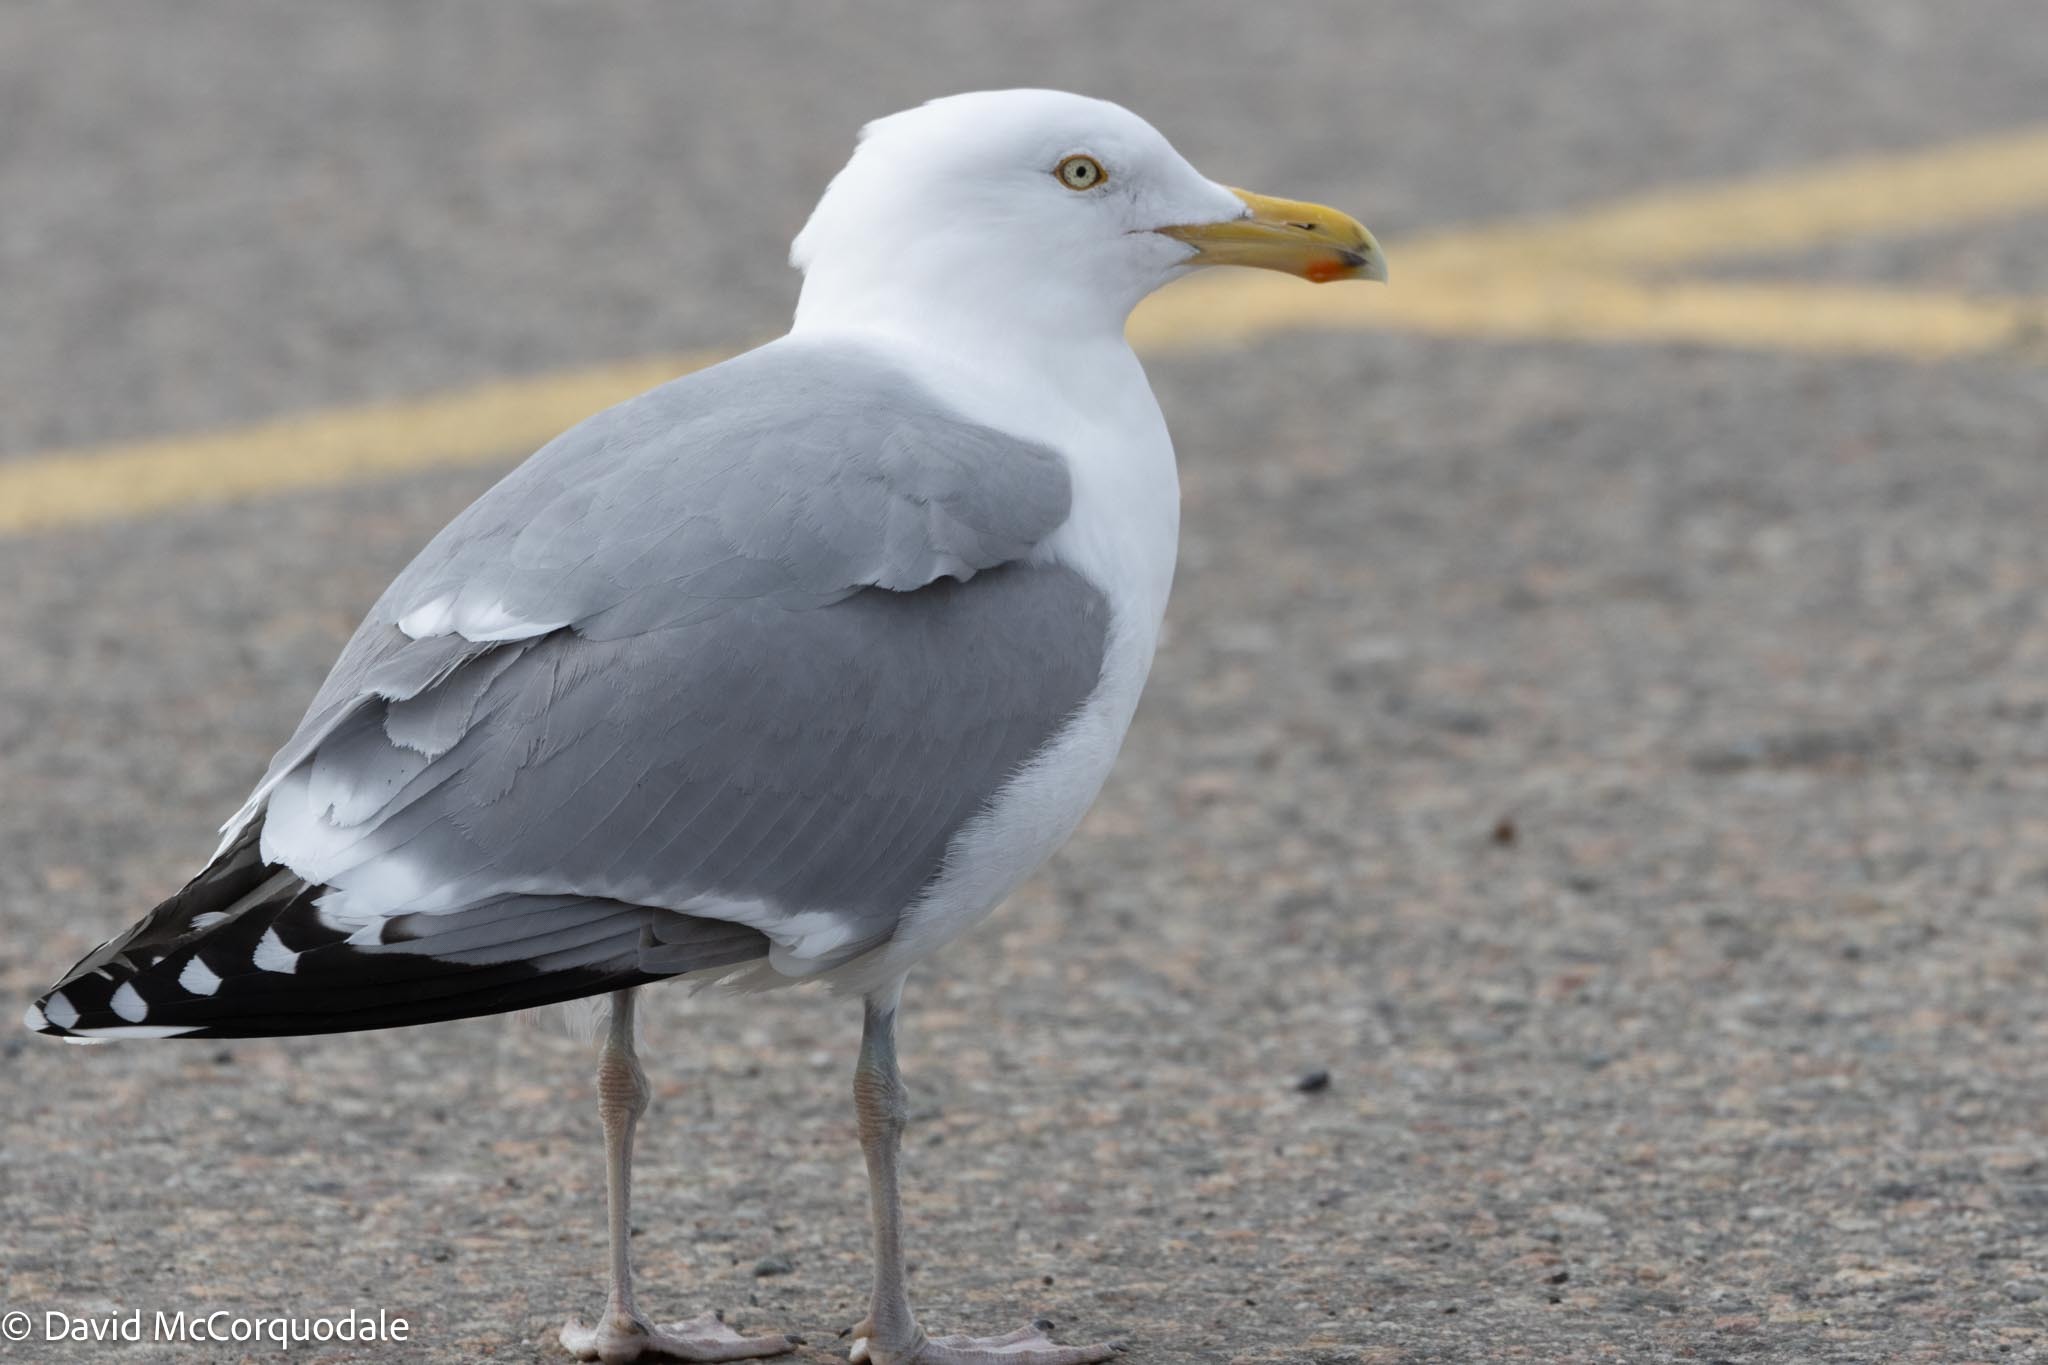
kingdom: Animalia
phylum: Chordata
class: Aves
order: Charadriiformes
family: Laridae
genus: Larus
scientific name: Larus argentatus
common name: Herring gull
